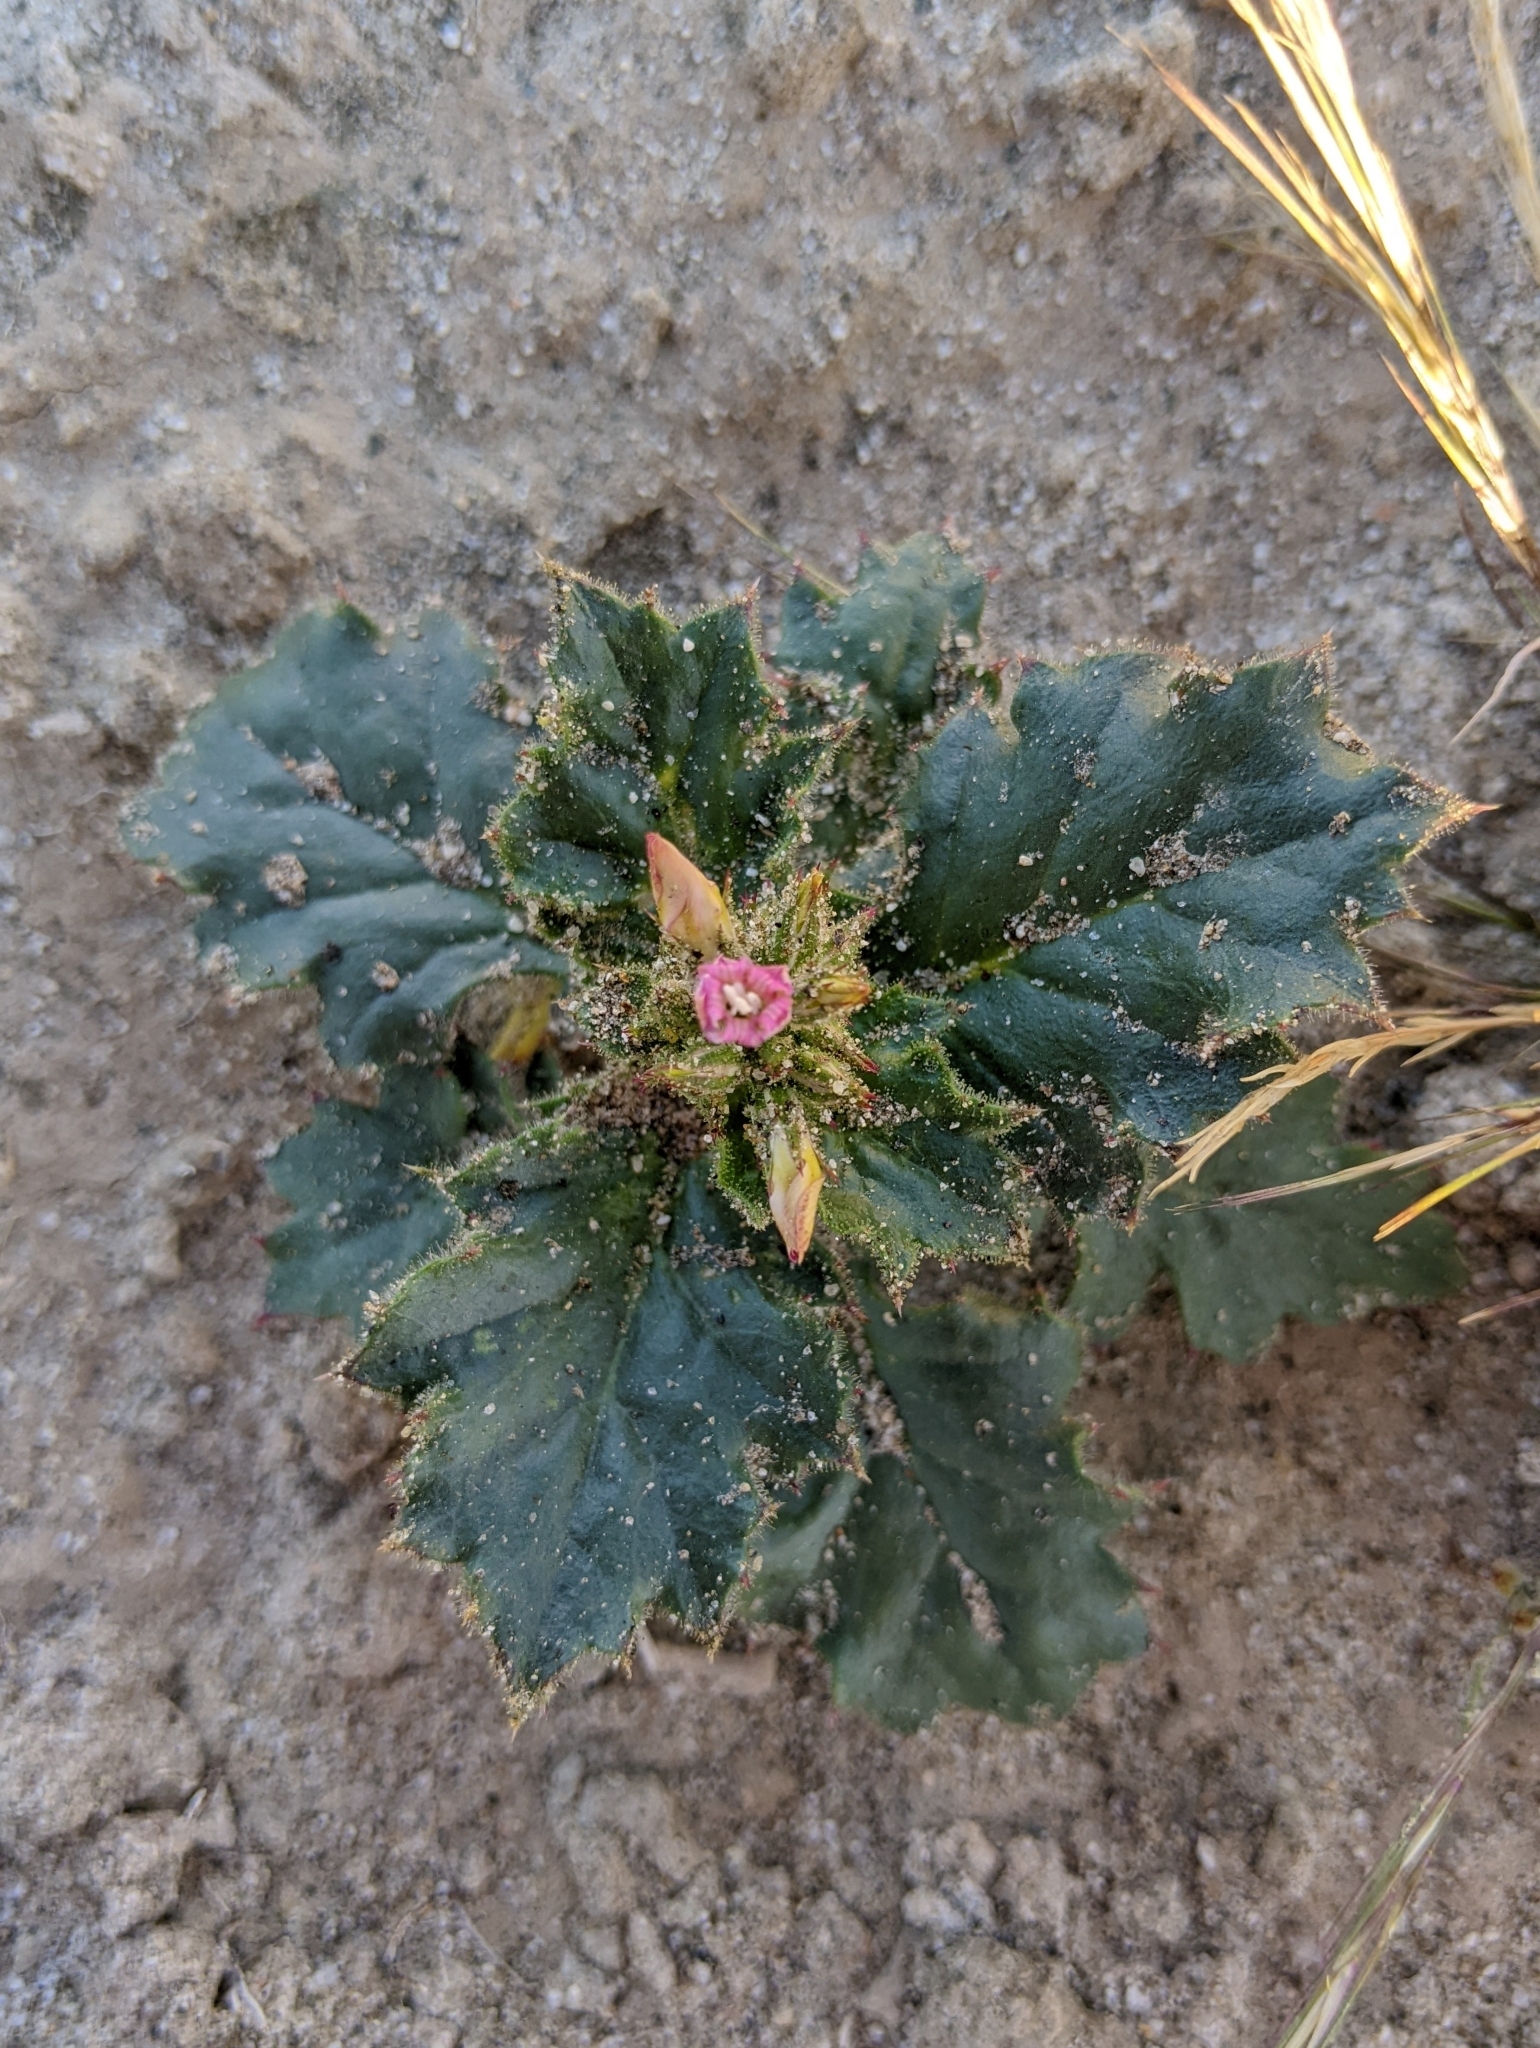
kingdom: Plantae
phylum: Tracheophyta
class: Magnoliopsida
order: Ericales
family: Polemoniaceae
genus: Aliciella
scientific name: Aliciella latifolia
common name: Broad-leaf gilia
